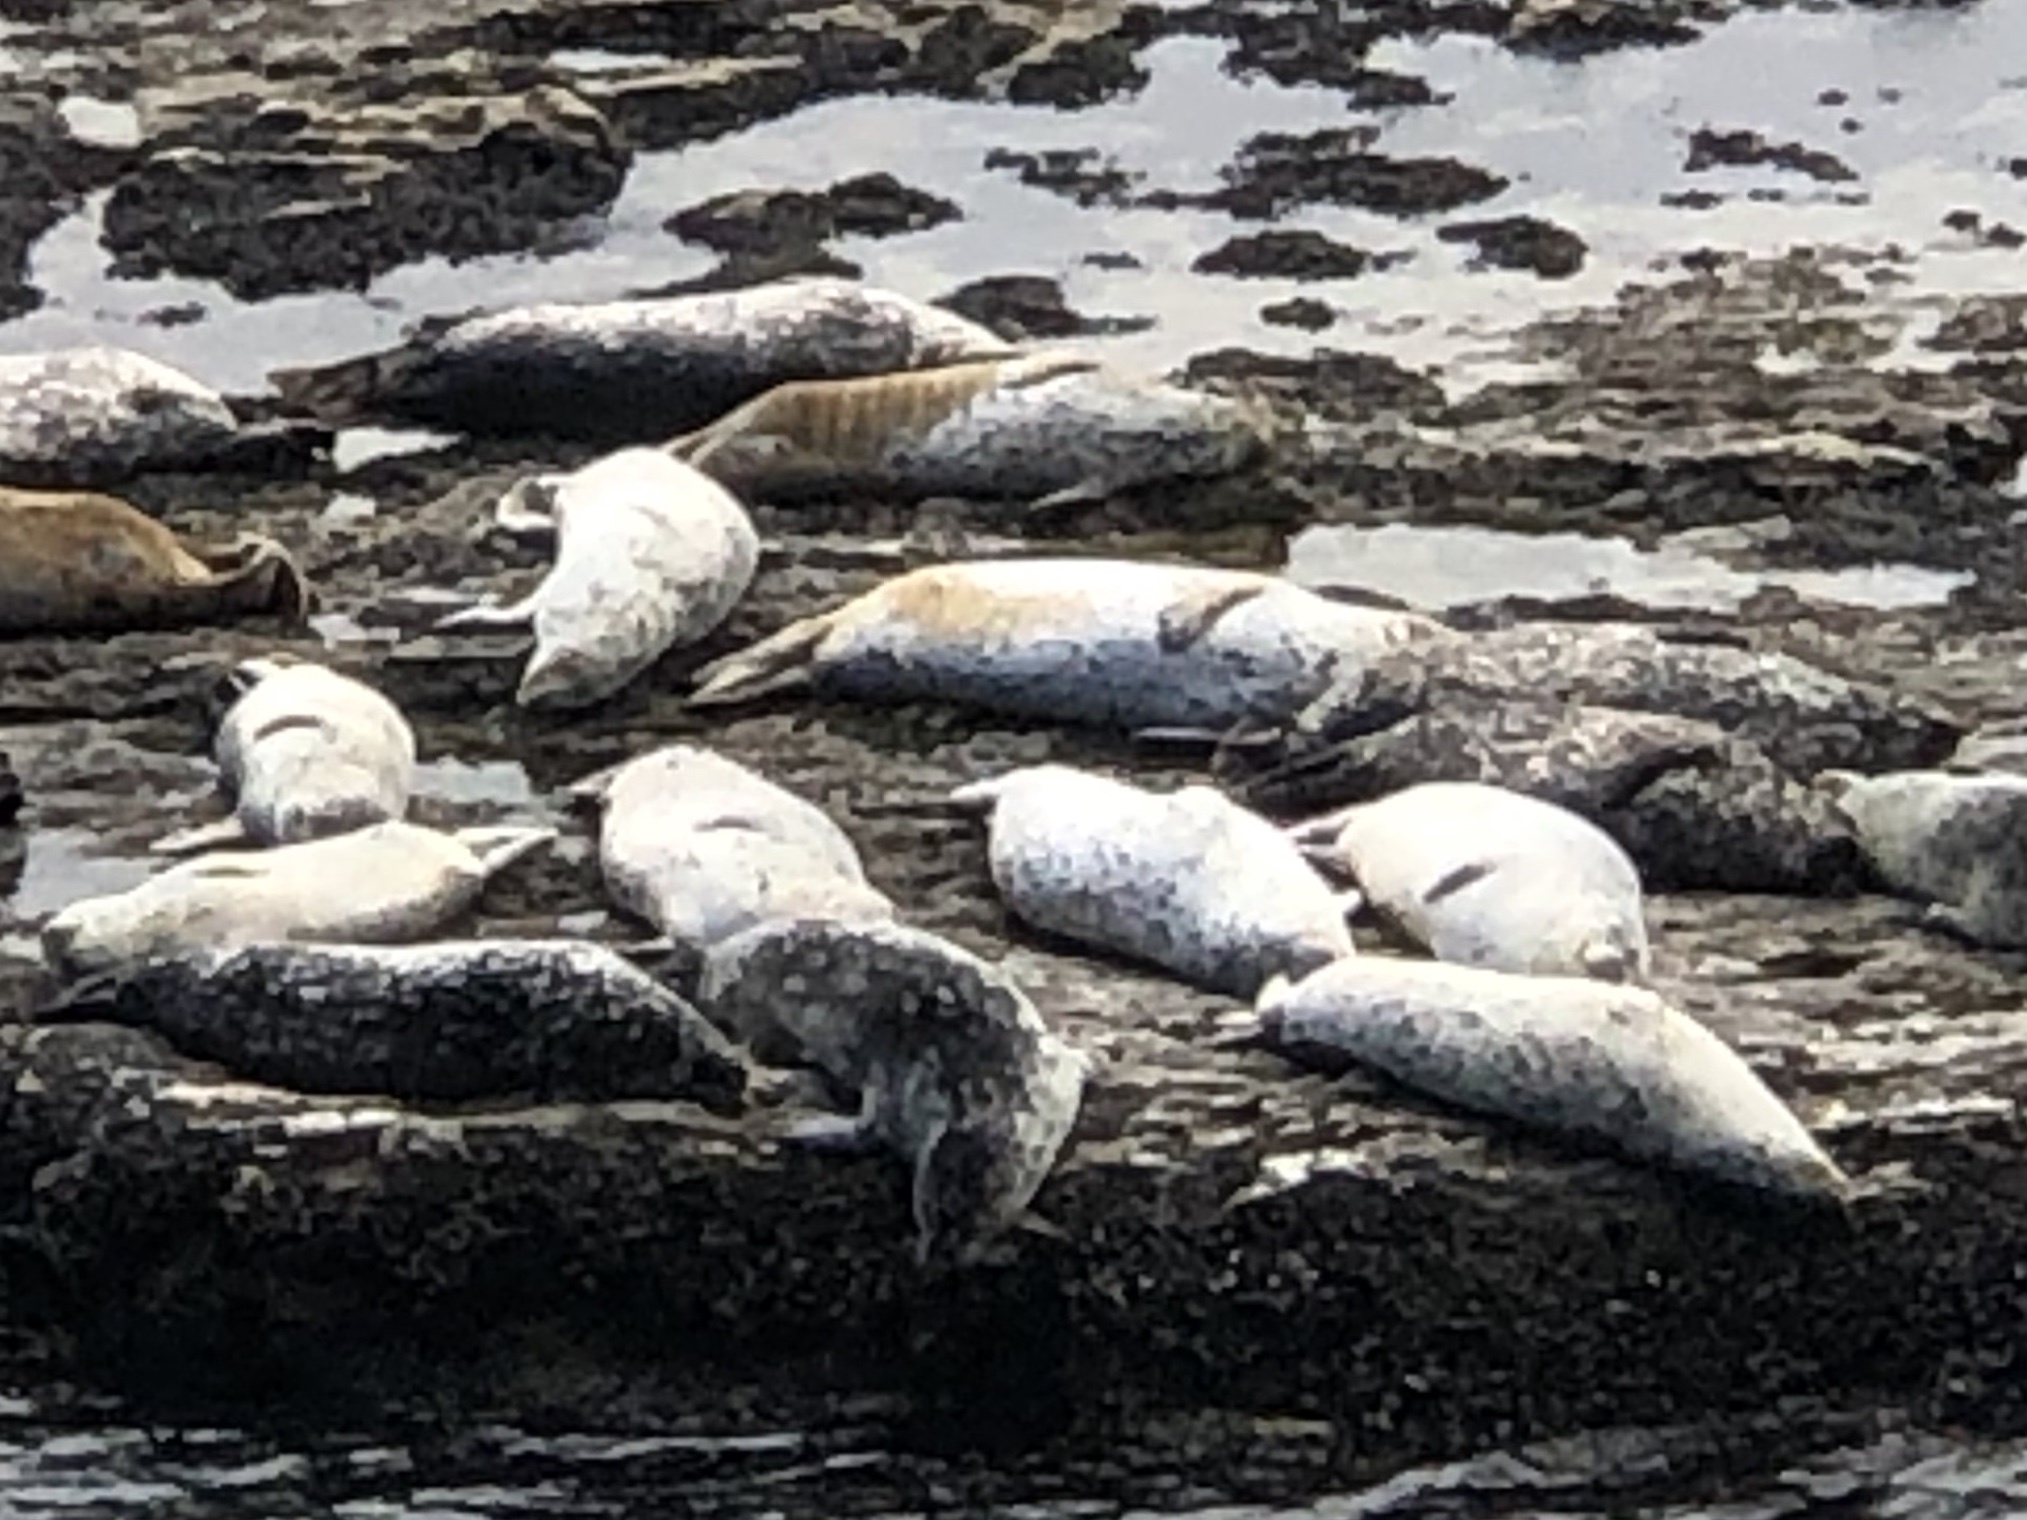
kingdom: Animalia
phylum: Chordata
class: Mammalia
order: Carnivora
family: Phocidae
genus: Phoca
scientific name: Phoca vitulina
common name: Harbor seal
